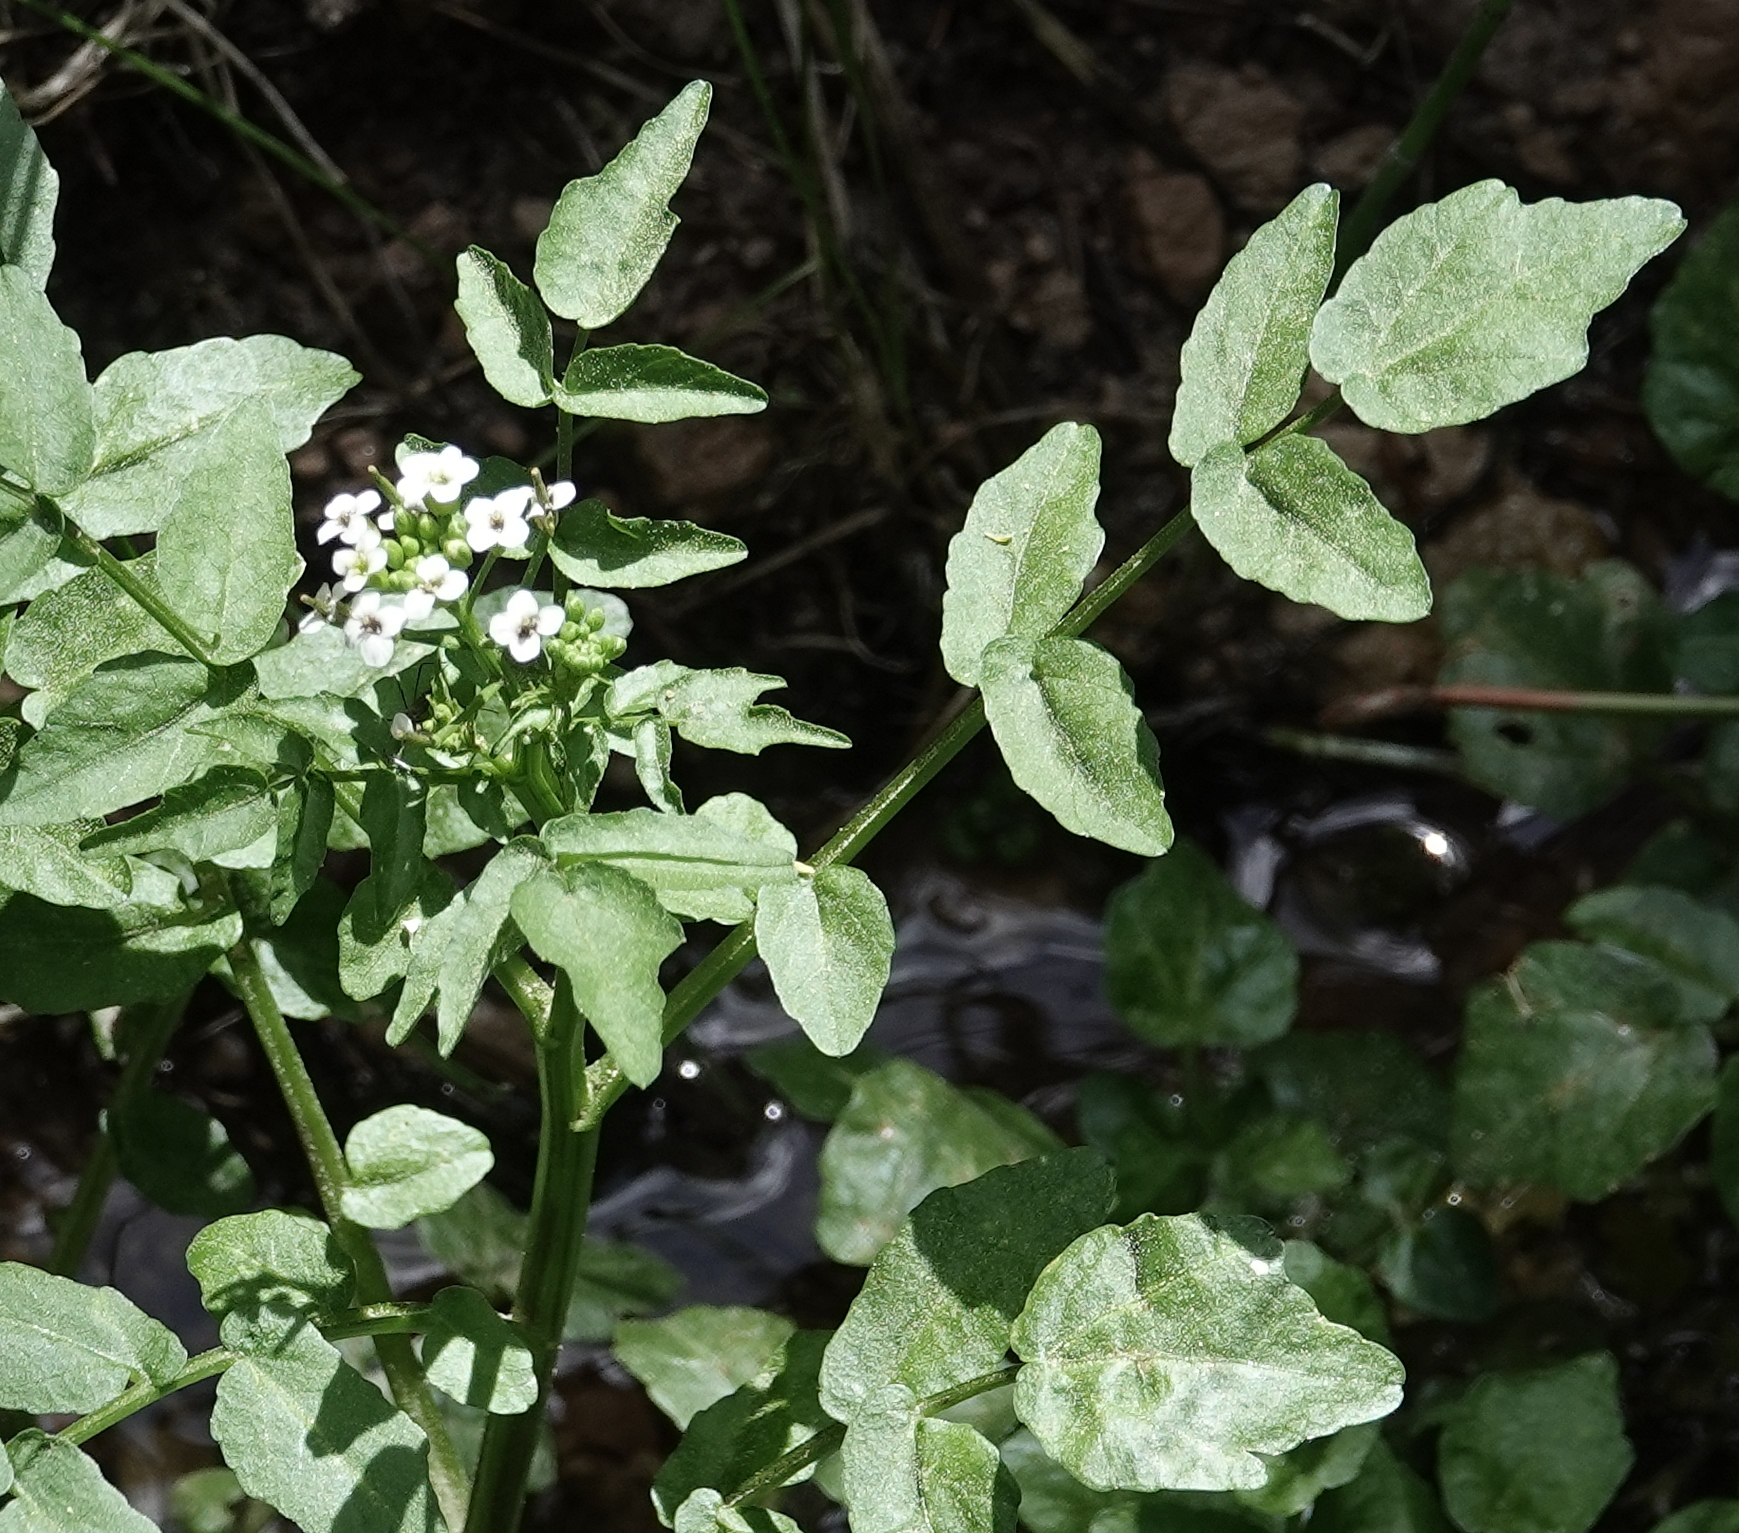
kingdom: Plantae
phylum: Tracheophyta
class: Magnoliopsida
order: Brassicales
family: Brassicaceae
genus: Nasturtium
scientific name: Nasturtium officinale
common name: Watercress
